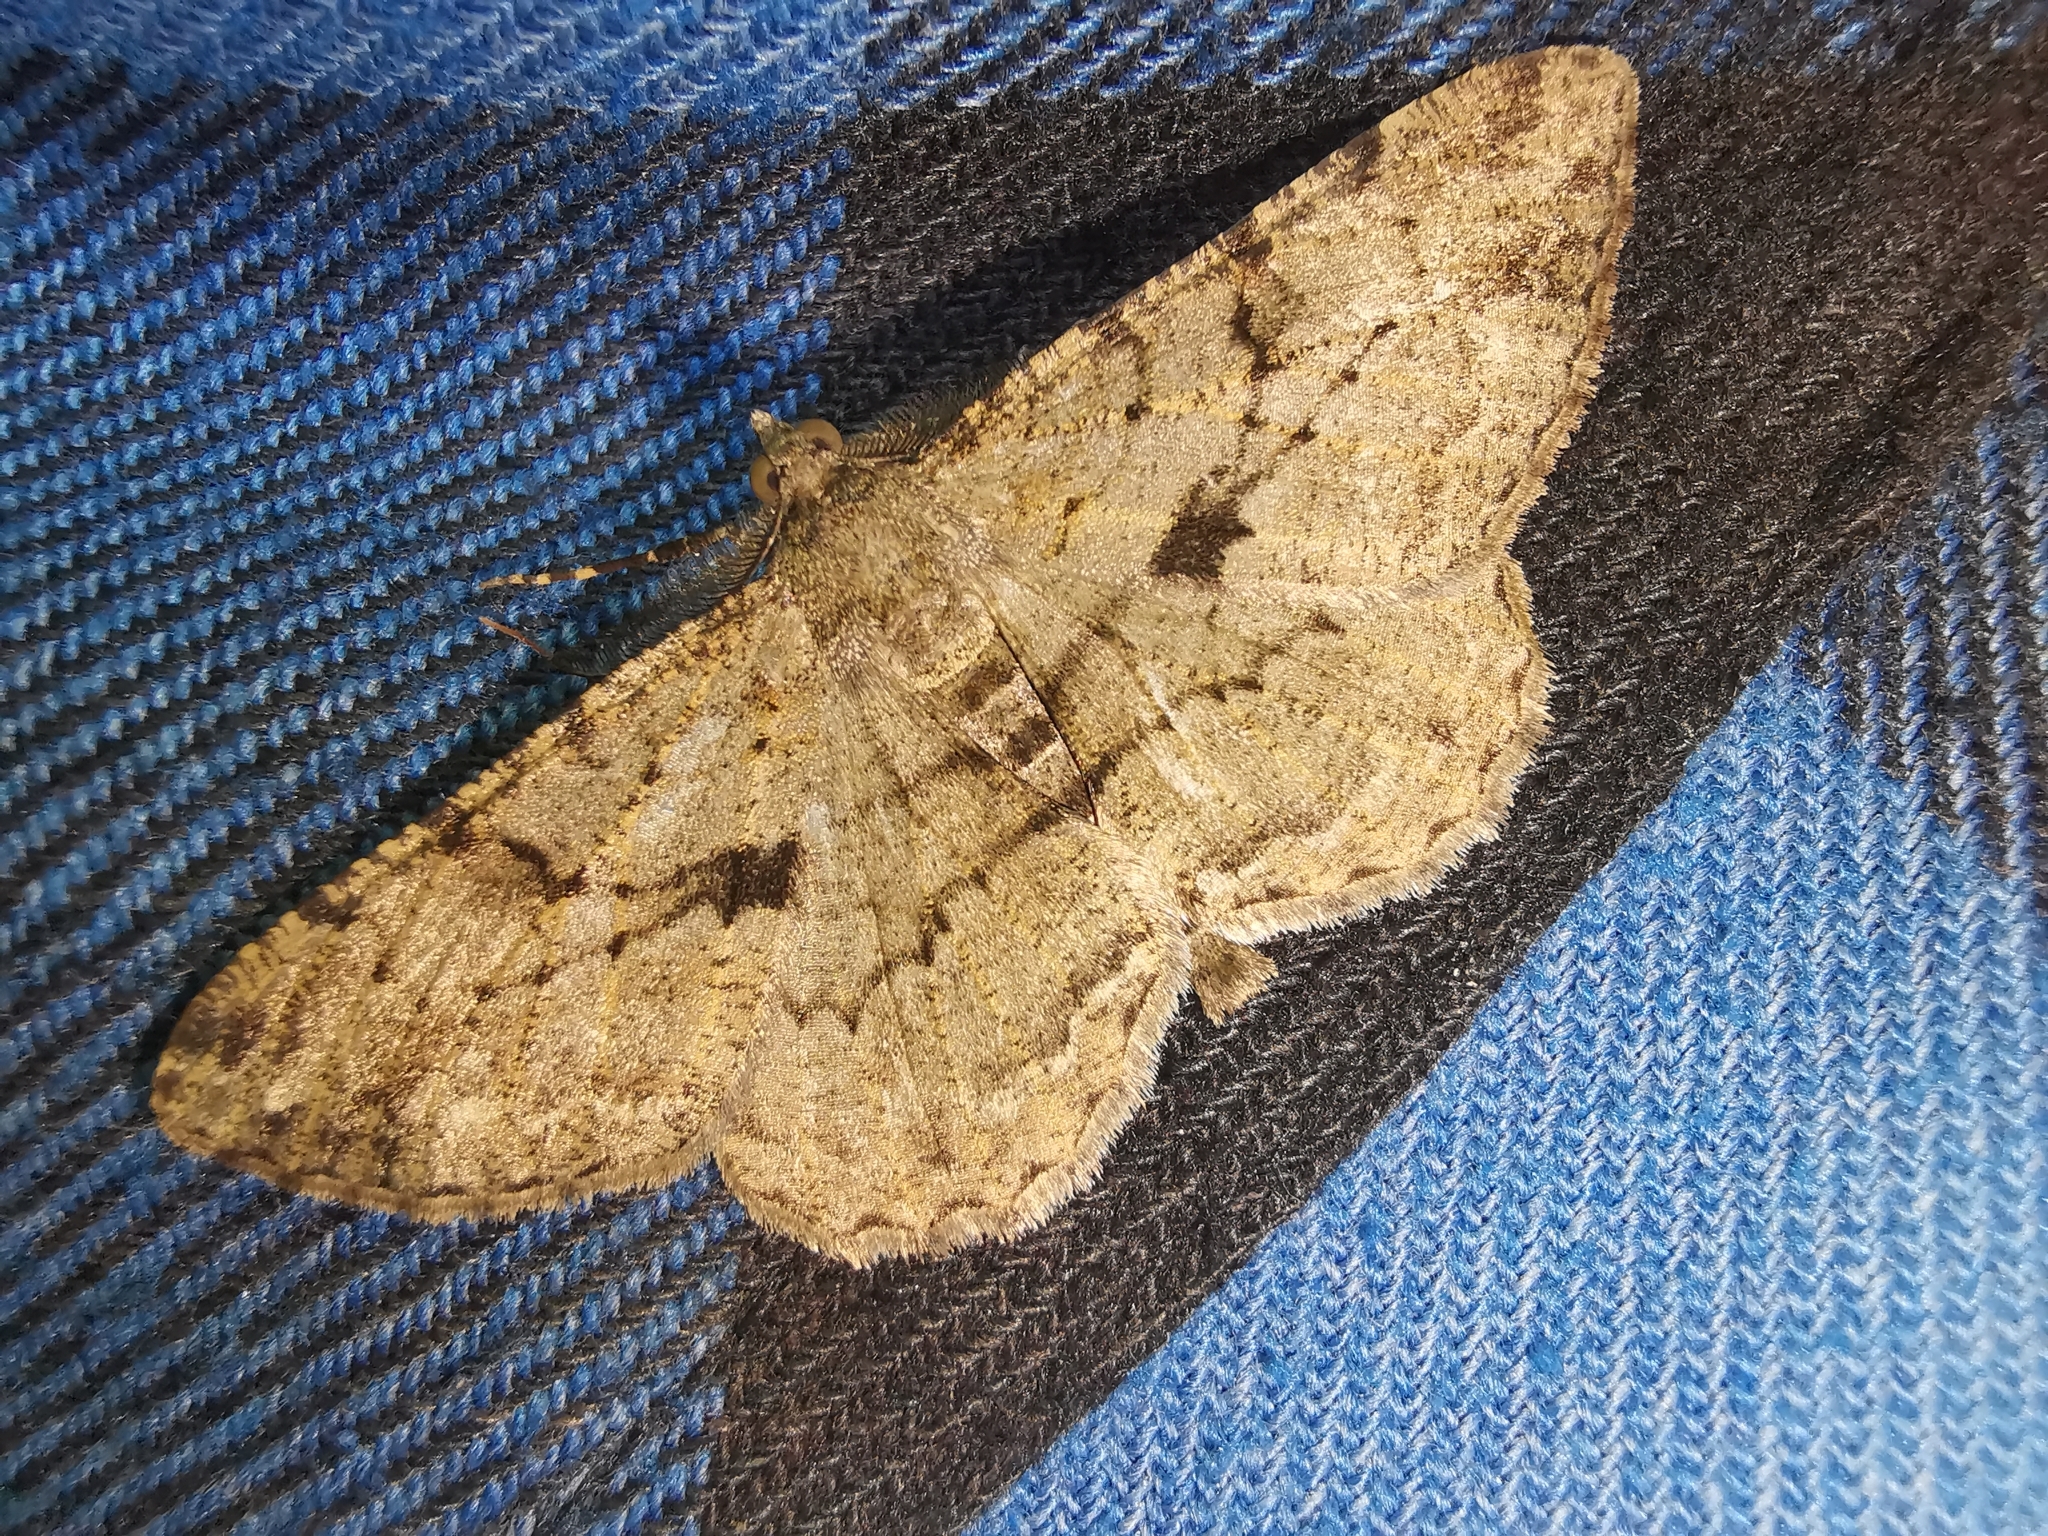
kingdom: Animalia
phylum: Arthropoda
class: Insecta
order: Lepidoptera
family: Geometridae
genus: Peribatodes
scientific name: Peribatodes rhomboidaria
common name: Willow beauty
